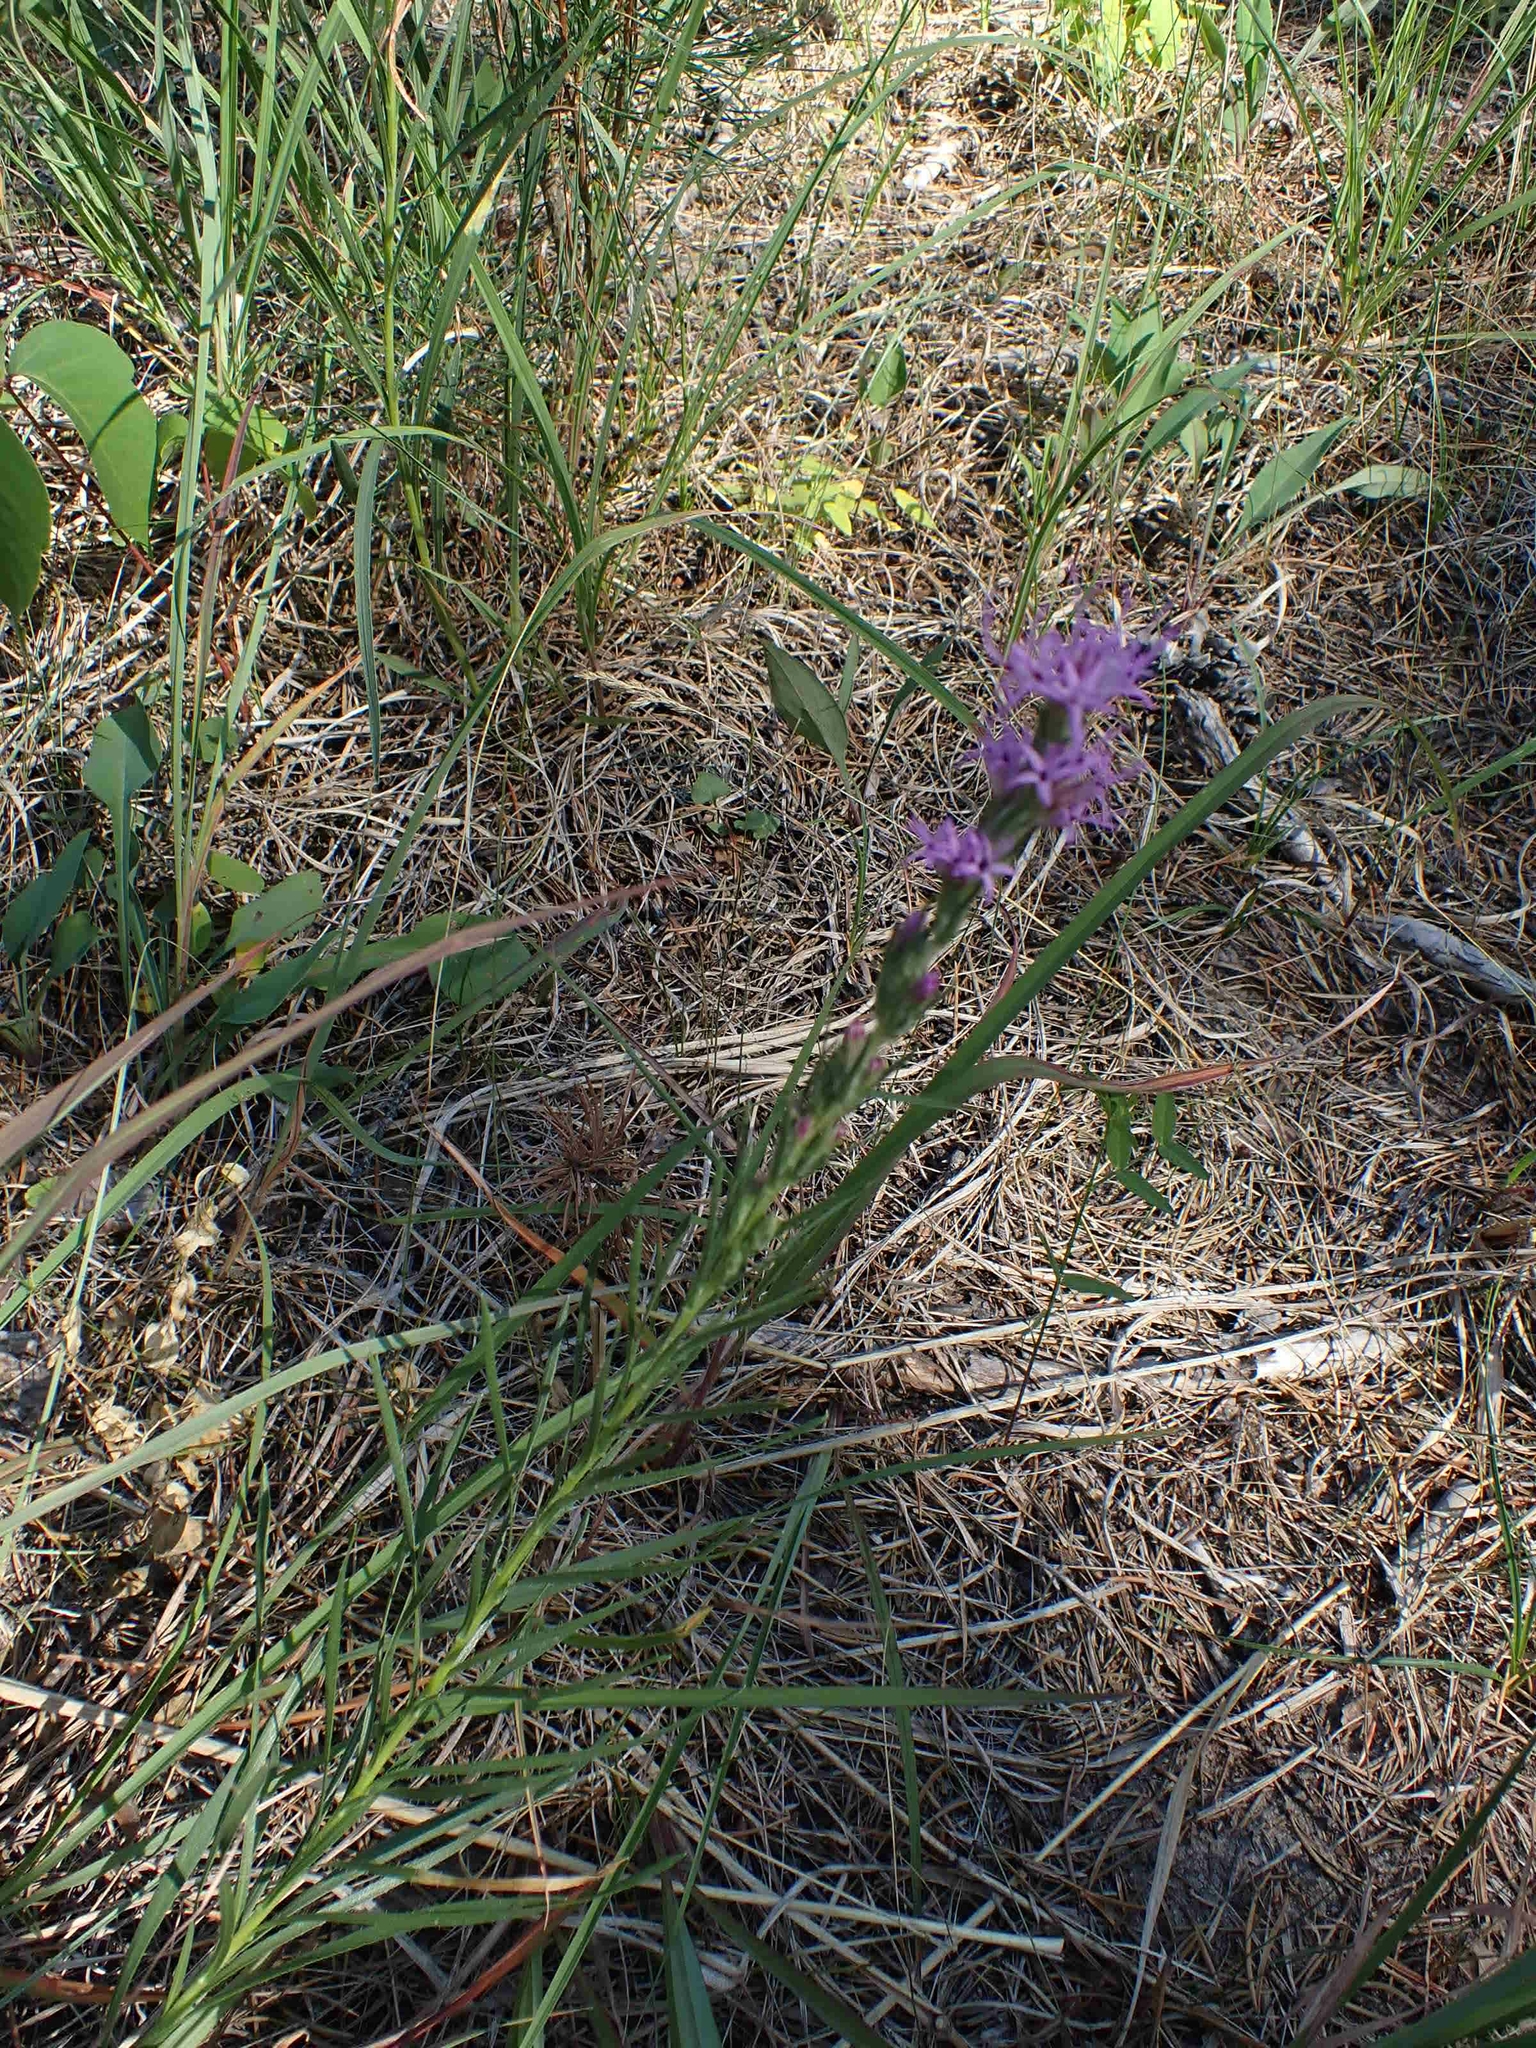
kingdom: Plantae
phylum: Tracheophyta
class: Magnoliopsida
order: Asterales
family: Asteraceae
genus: Liatris
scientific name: Liatris punctata
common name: Dotted gayfeather
